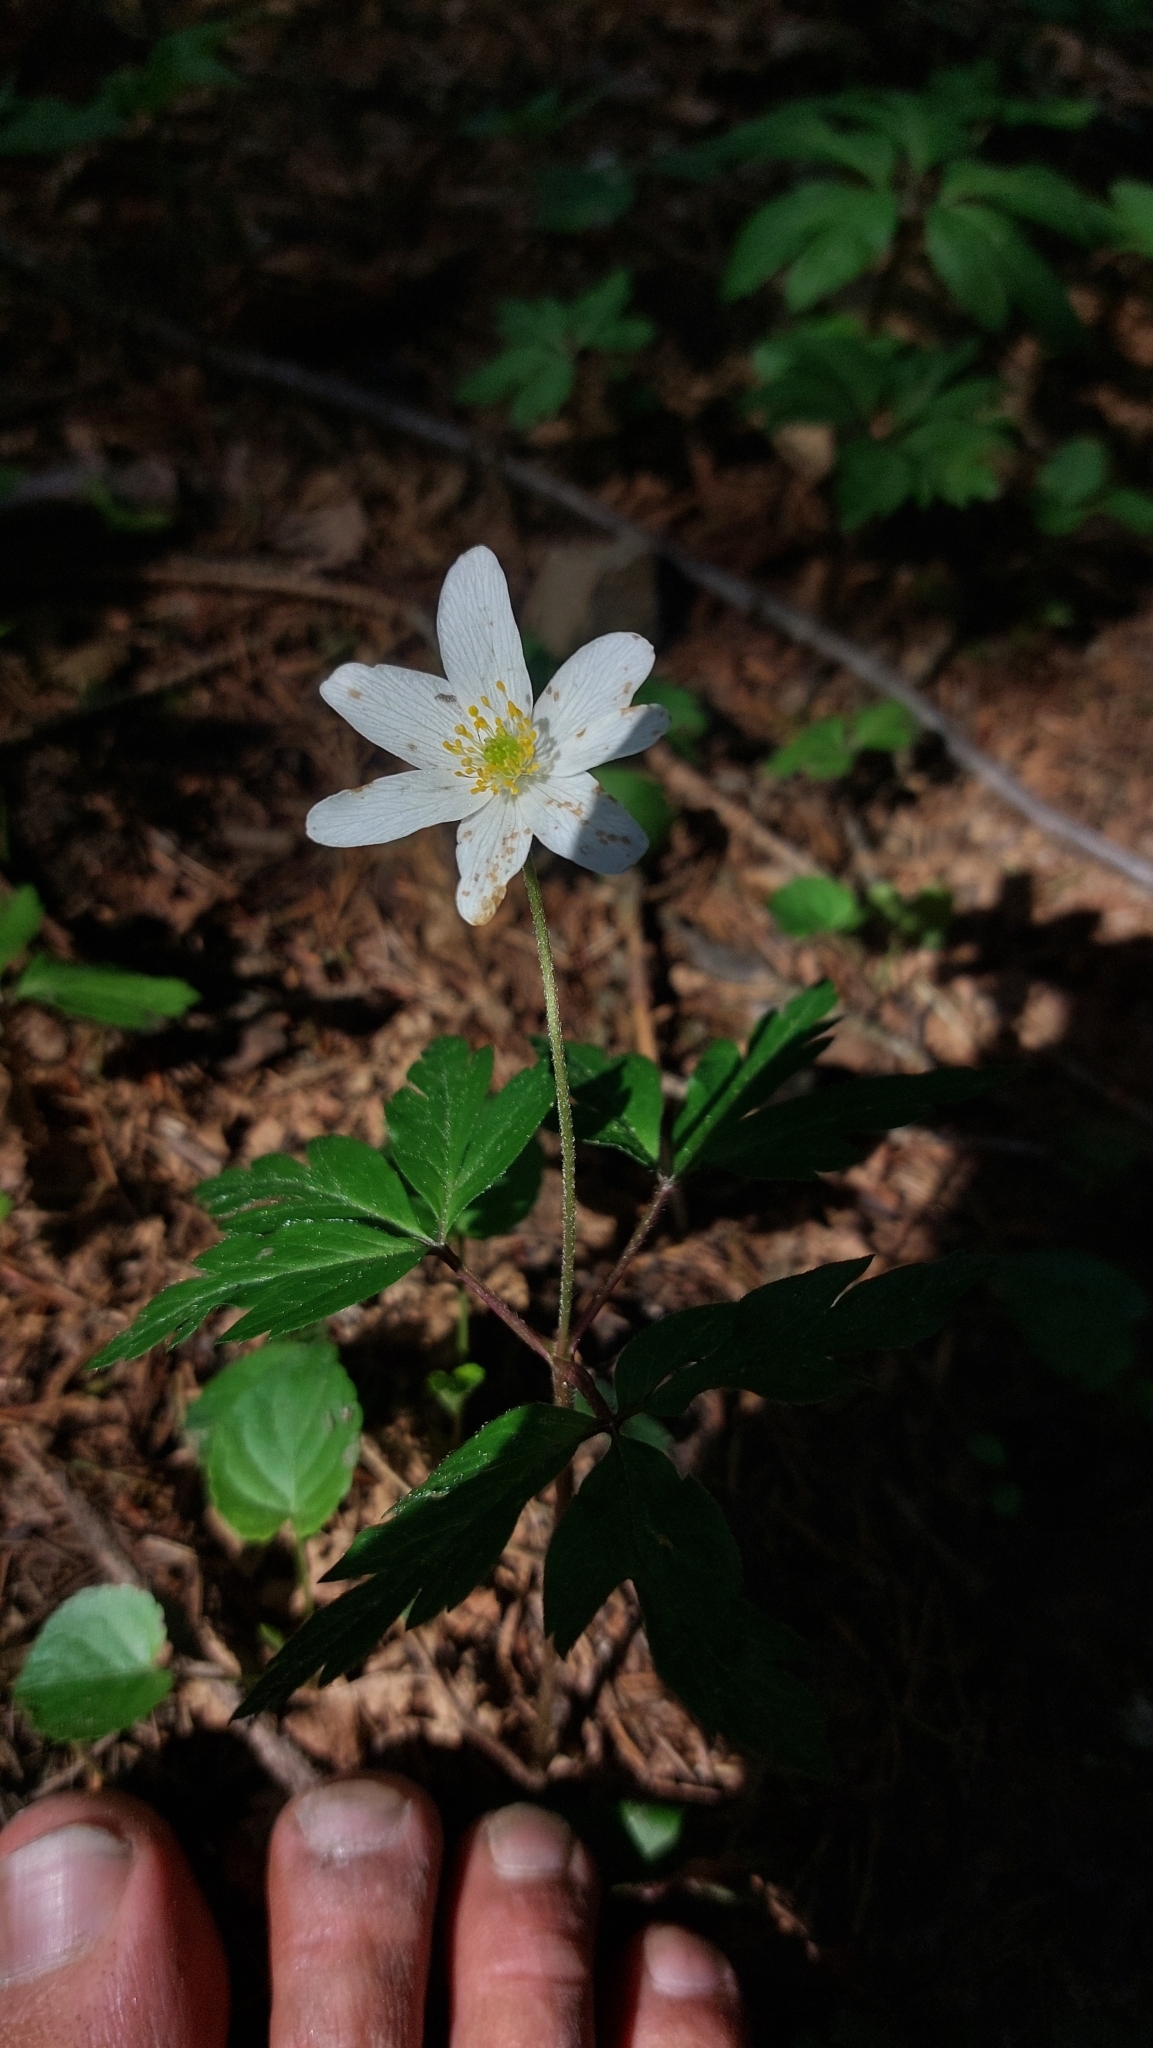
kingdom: Plantae
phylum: Tracheophyta
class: Magnoliopsida
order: Ranunculales
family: Ranunculaceae
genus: Anemone
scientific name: Anemone nemorosa
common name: Wood anemone
